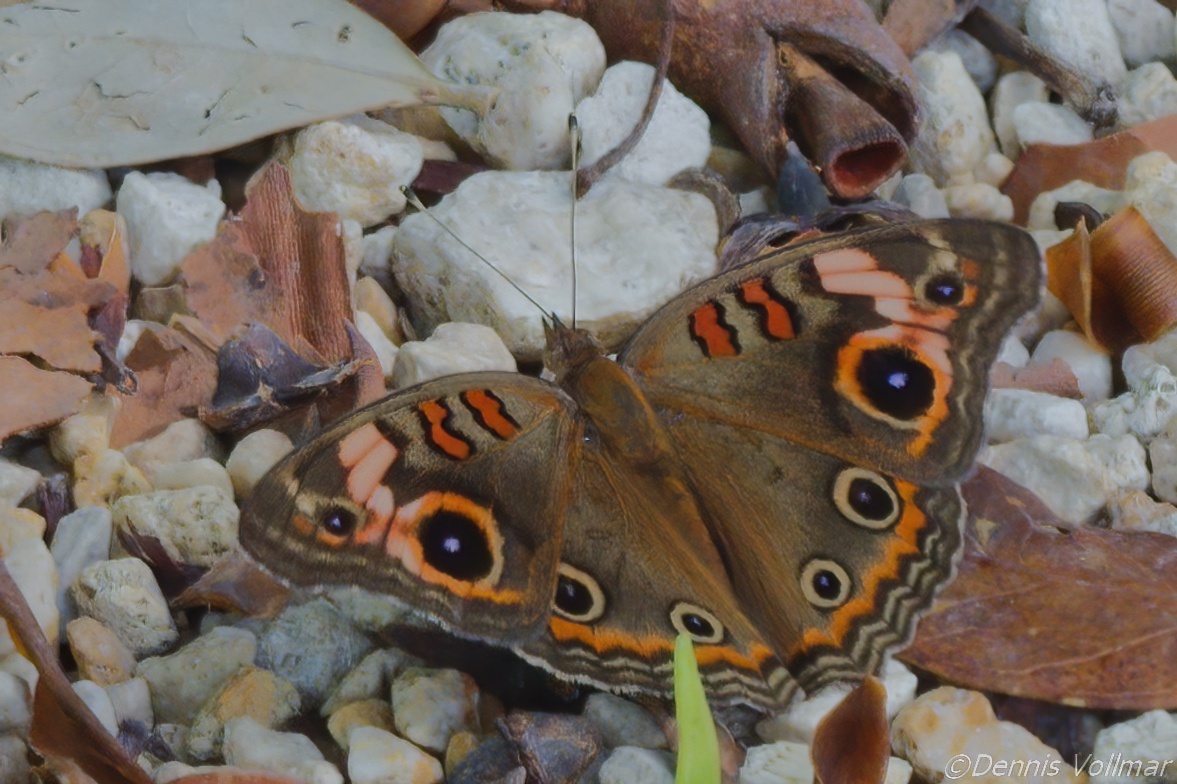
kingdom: Animalia
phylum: Arthropoda
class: Insecta
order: Lepidoptera
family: Nymphalidae
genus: Junonia
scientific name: Junonia neildi
